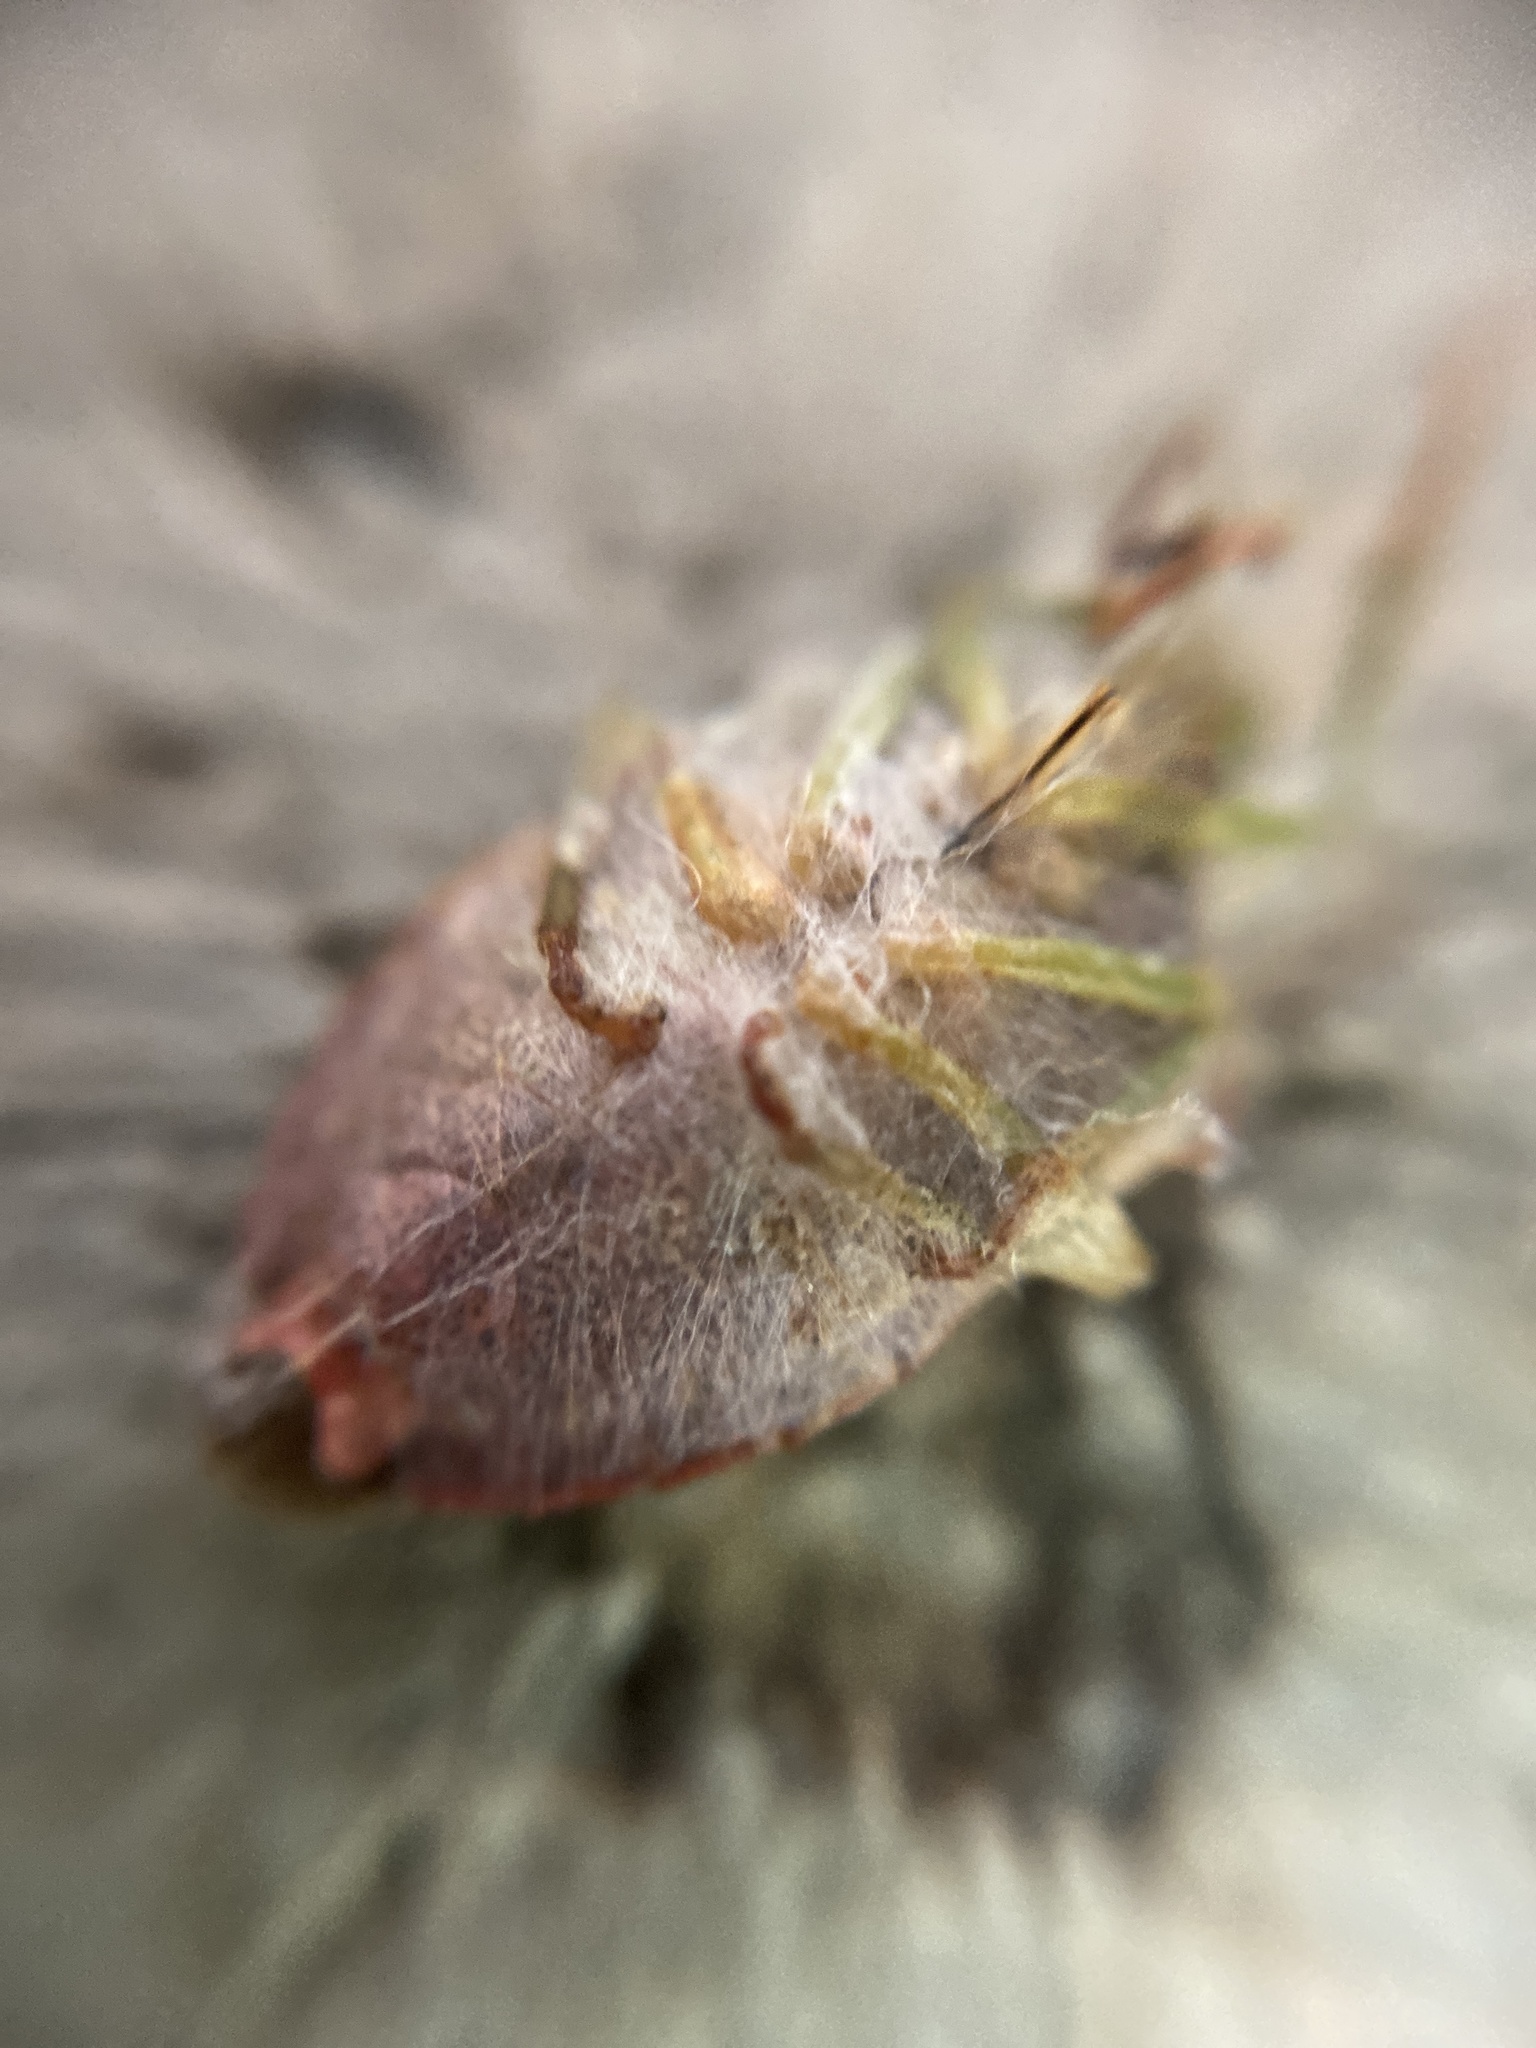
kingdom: Animalia
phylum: Arthropoda
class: Insecta
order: Hemiptera
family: Pentatomidae
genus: Palomena
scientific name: Palomena prasina
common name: Green shieldbug
